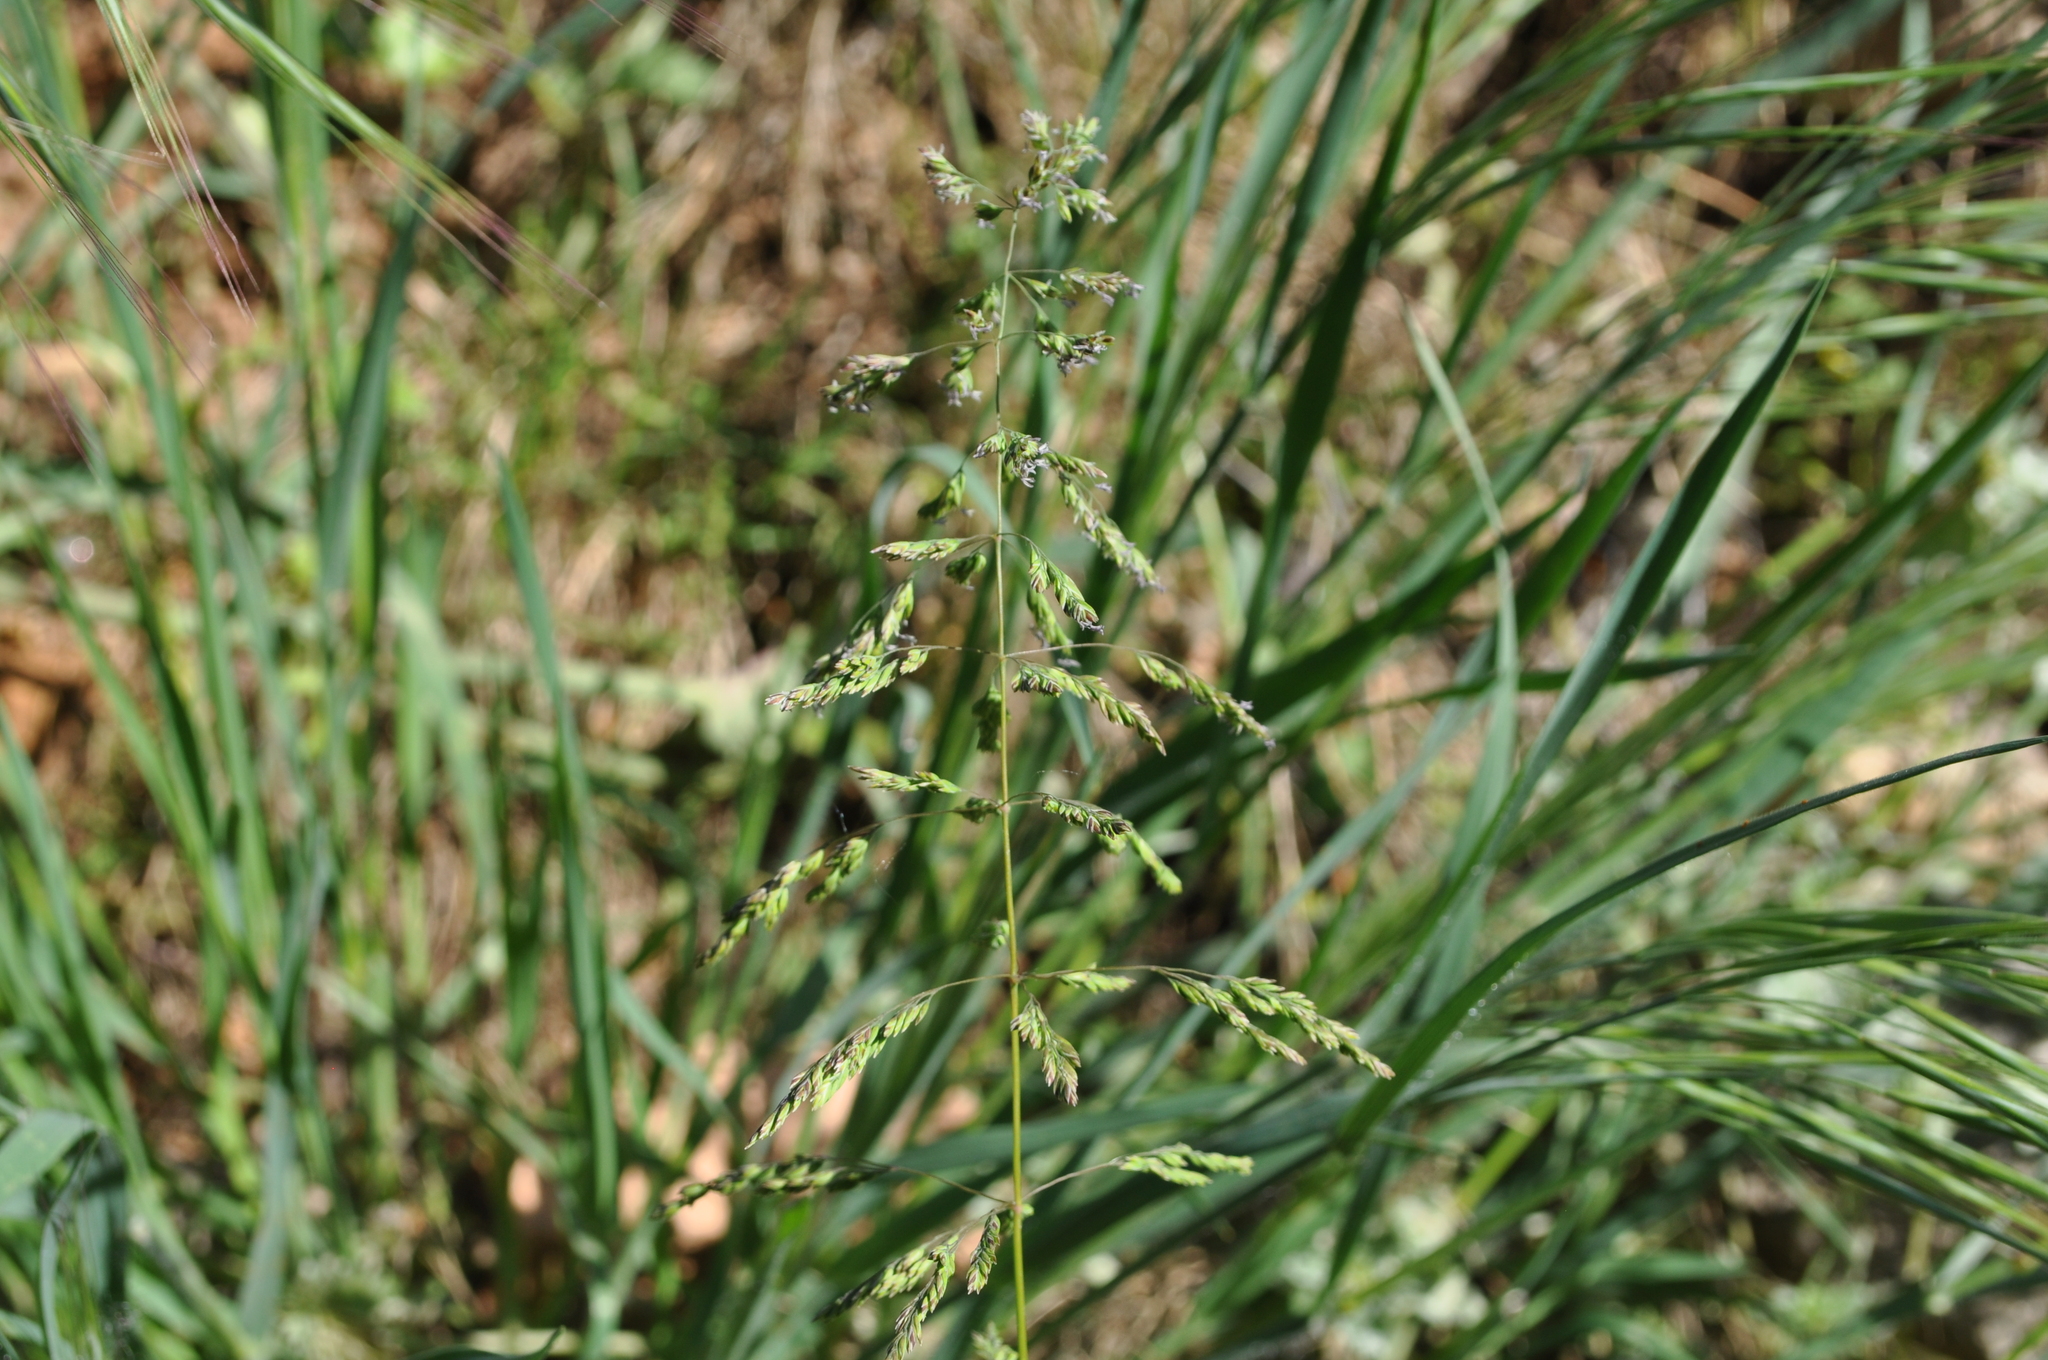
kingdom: Plantae
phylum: Tracheophyta
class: Liliopsida
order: Poales
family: Poaceae
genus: Poa
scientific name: Poa trivialis
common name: Rough bluegrass
